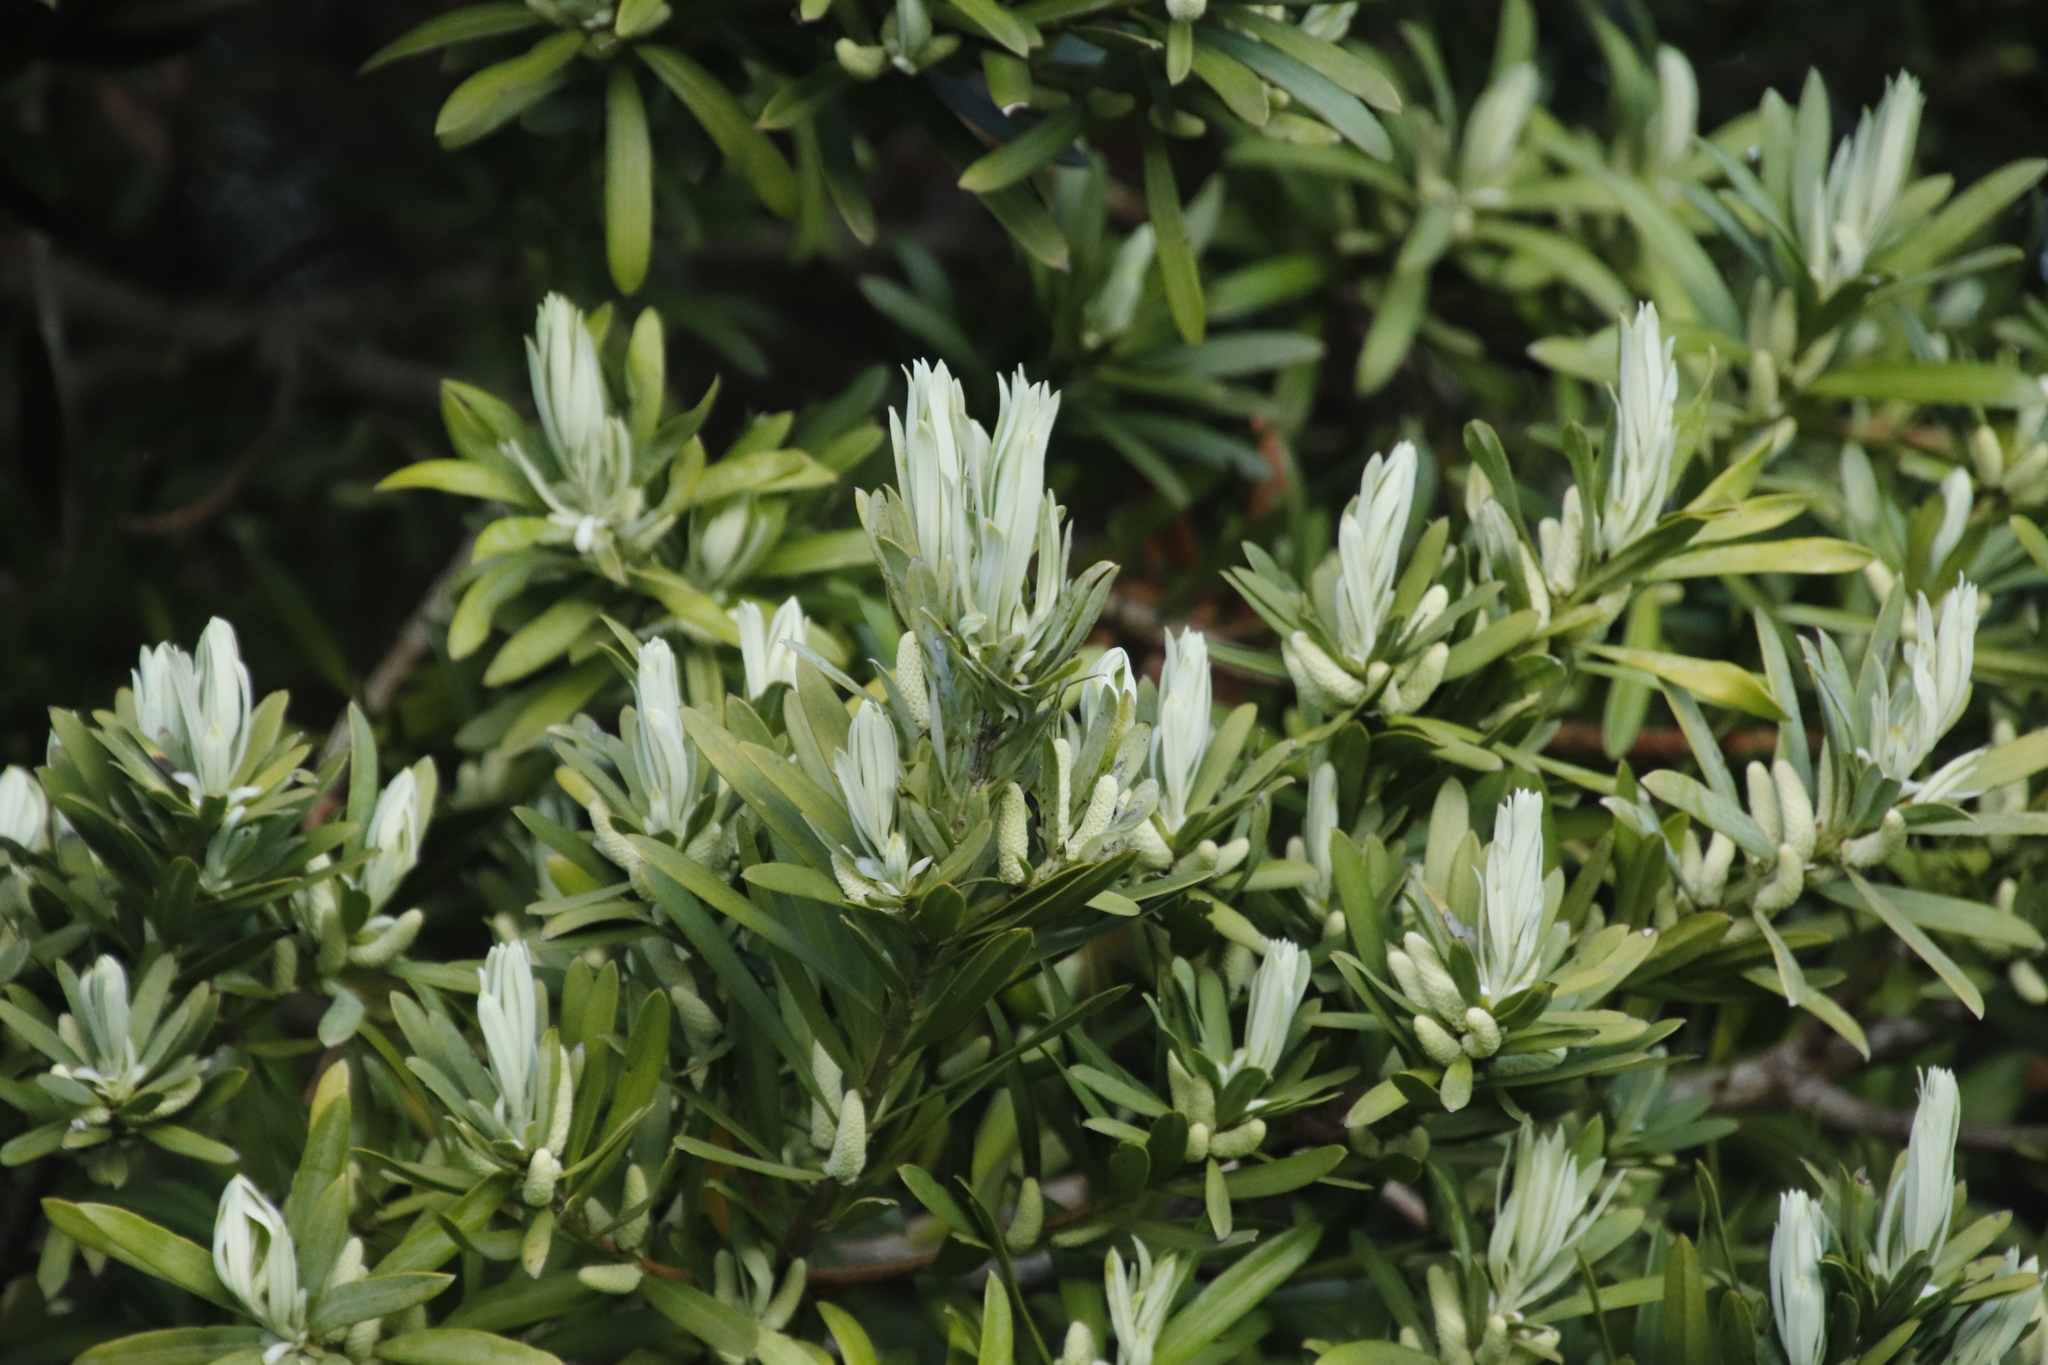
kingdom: Plantae
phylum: Tracheophyta
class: Pinopsida
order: Pinales
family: Podocarpaceae
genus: Podocarpus
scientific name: Podocarpus latifolius
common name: True yellowwood
